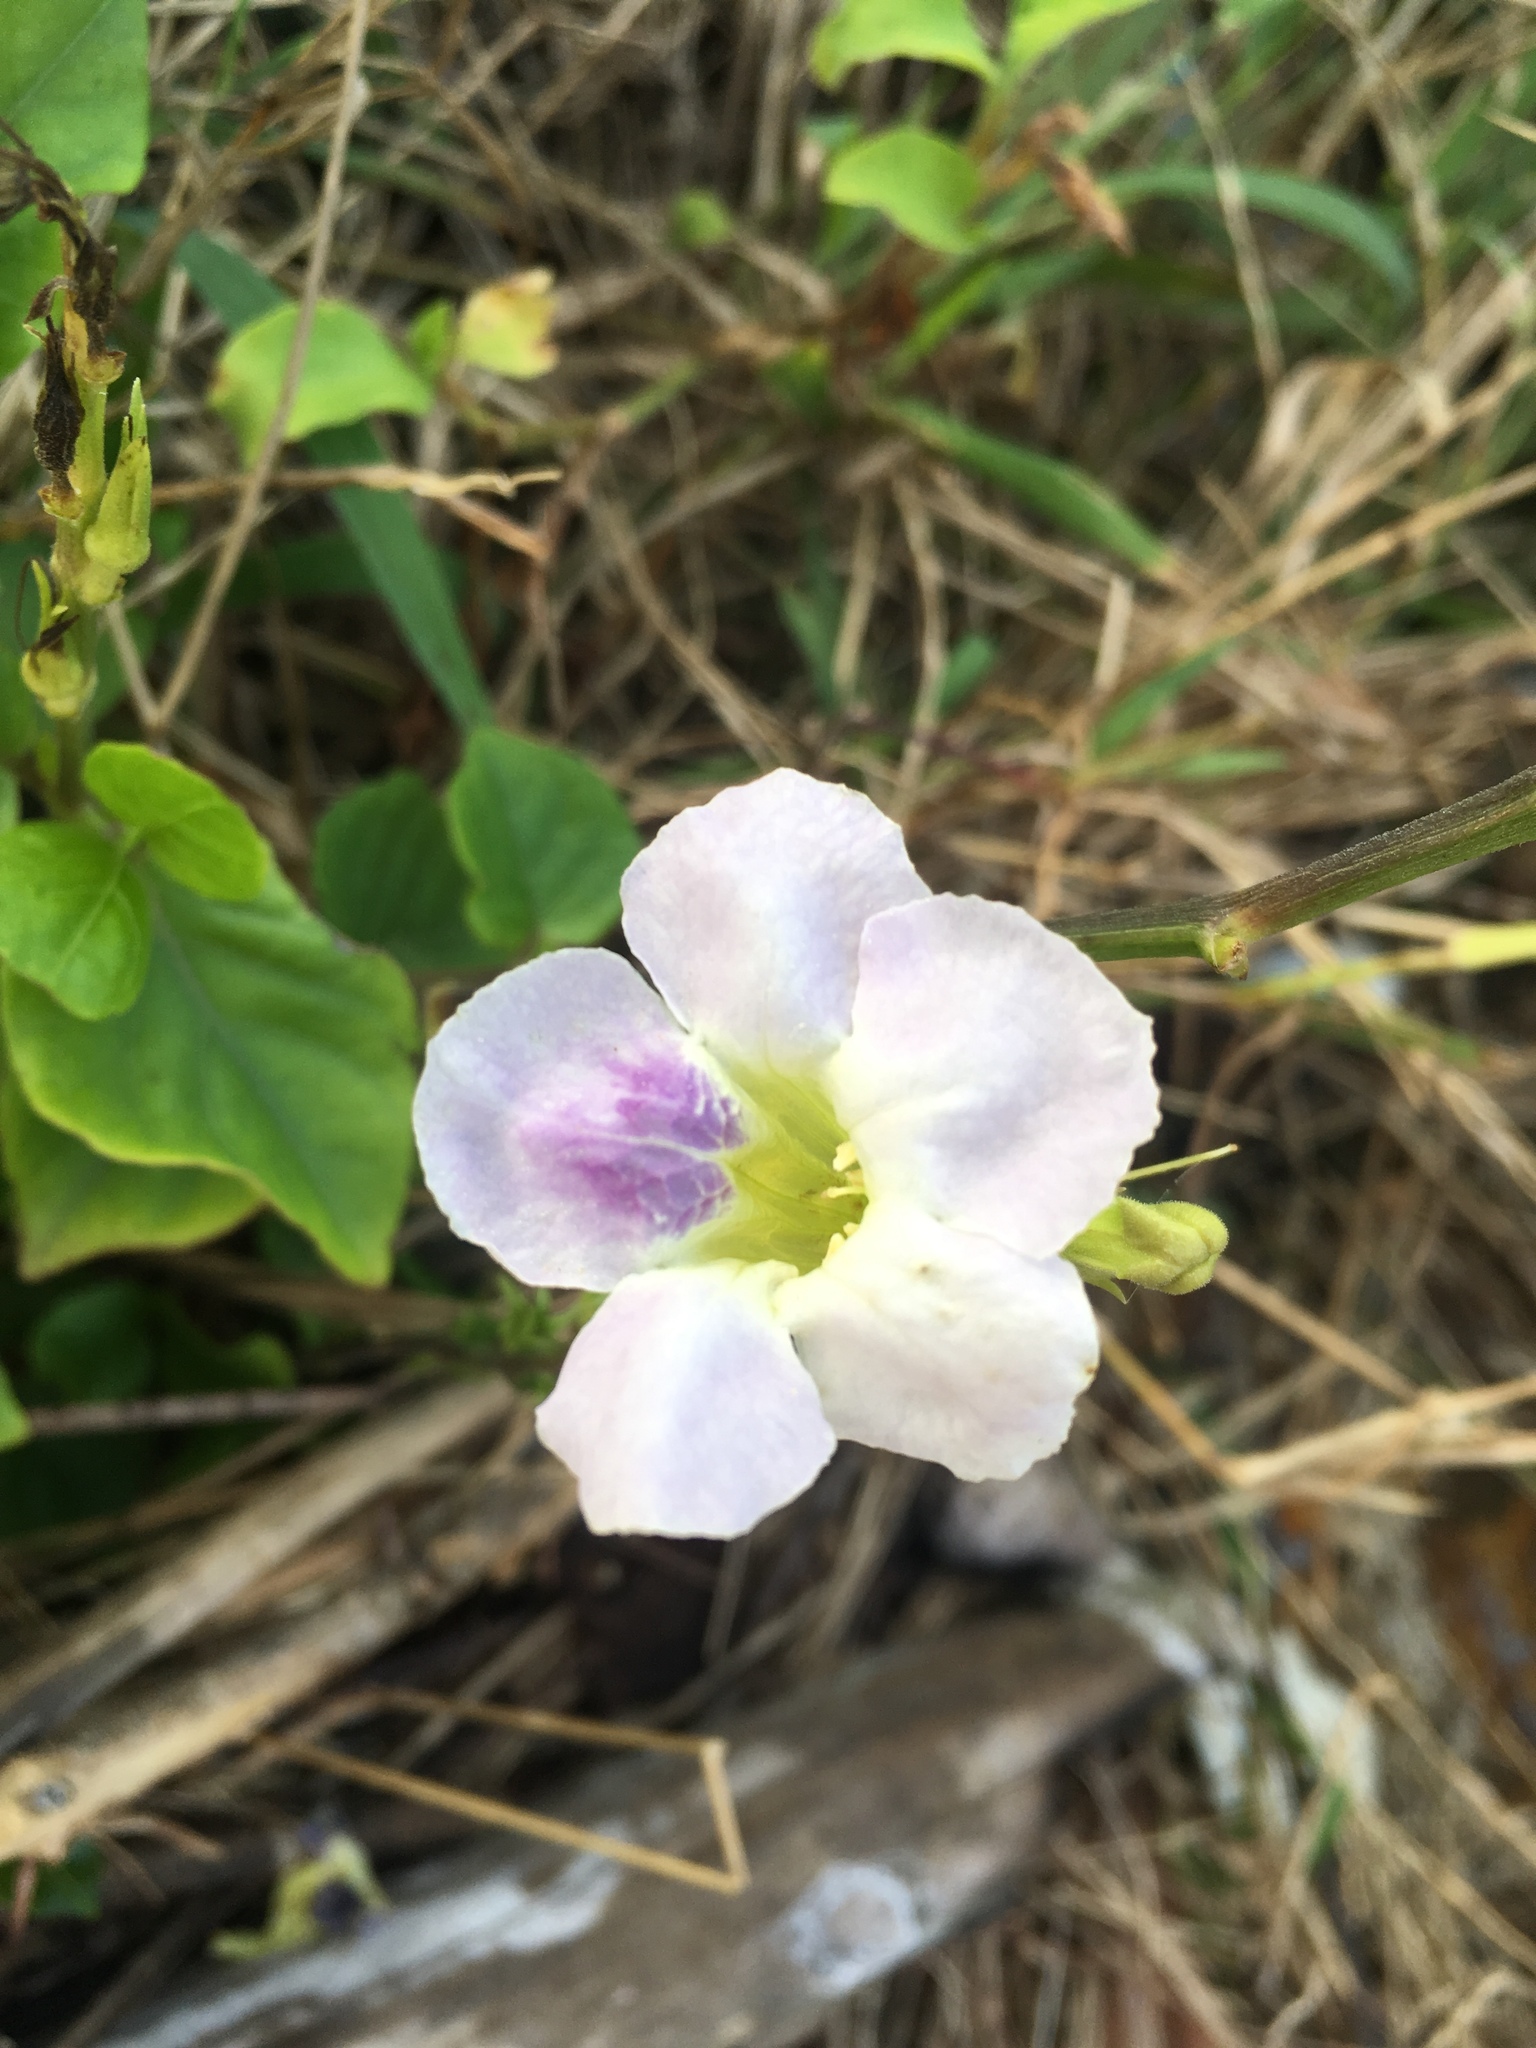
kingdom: Plantae
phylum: Tracheophyta
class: Magnoliopsida
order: Lamiales
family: Acanthaceae
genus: Asystasia
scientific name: Asystasia gangetica
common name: Chinese violet
